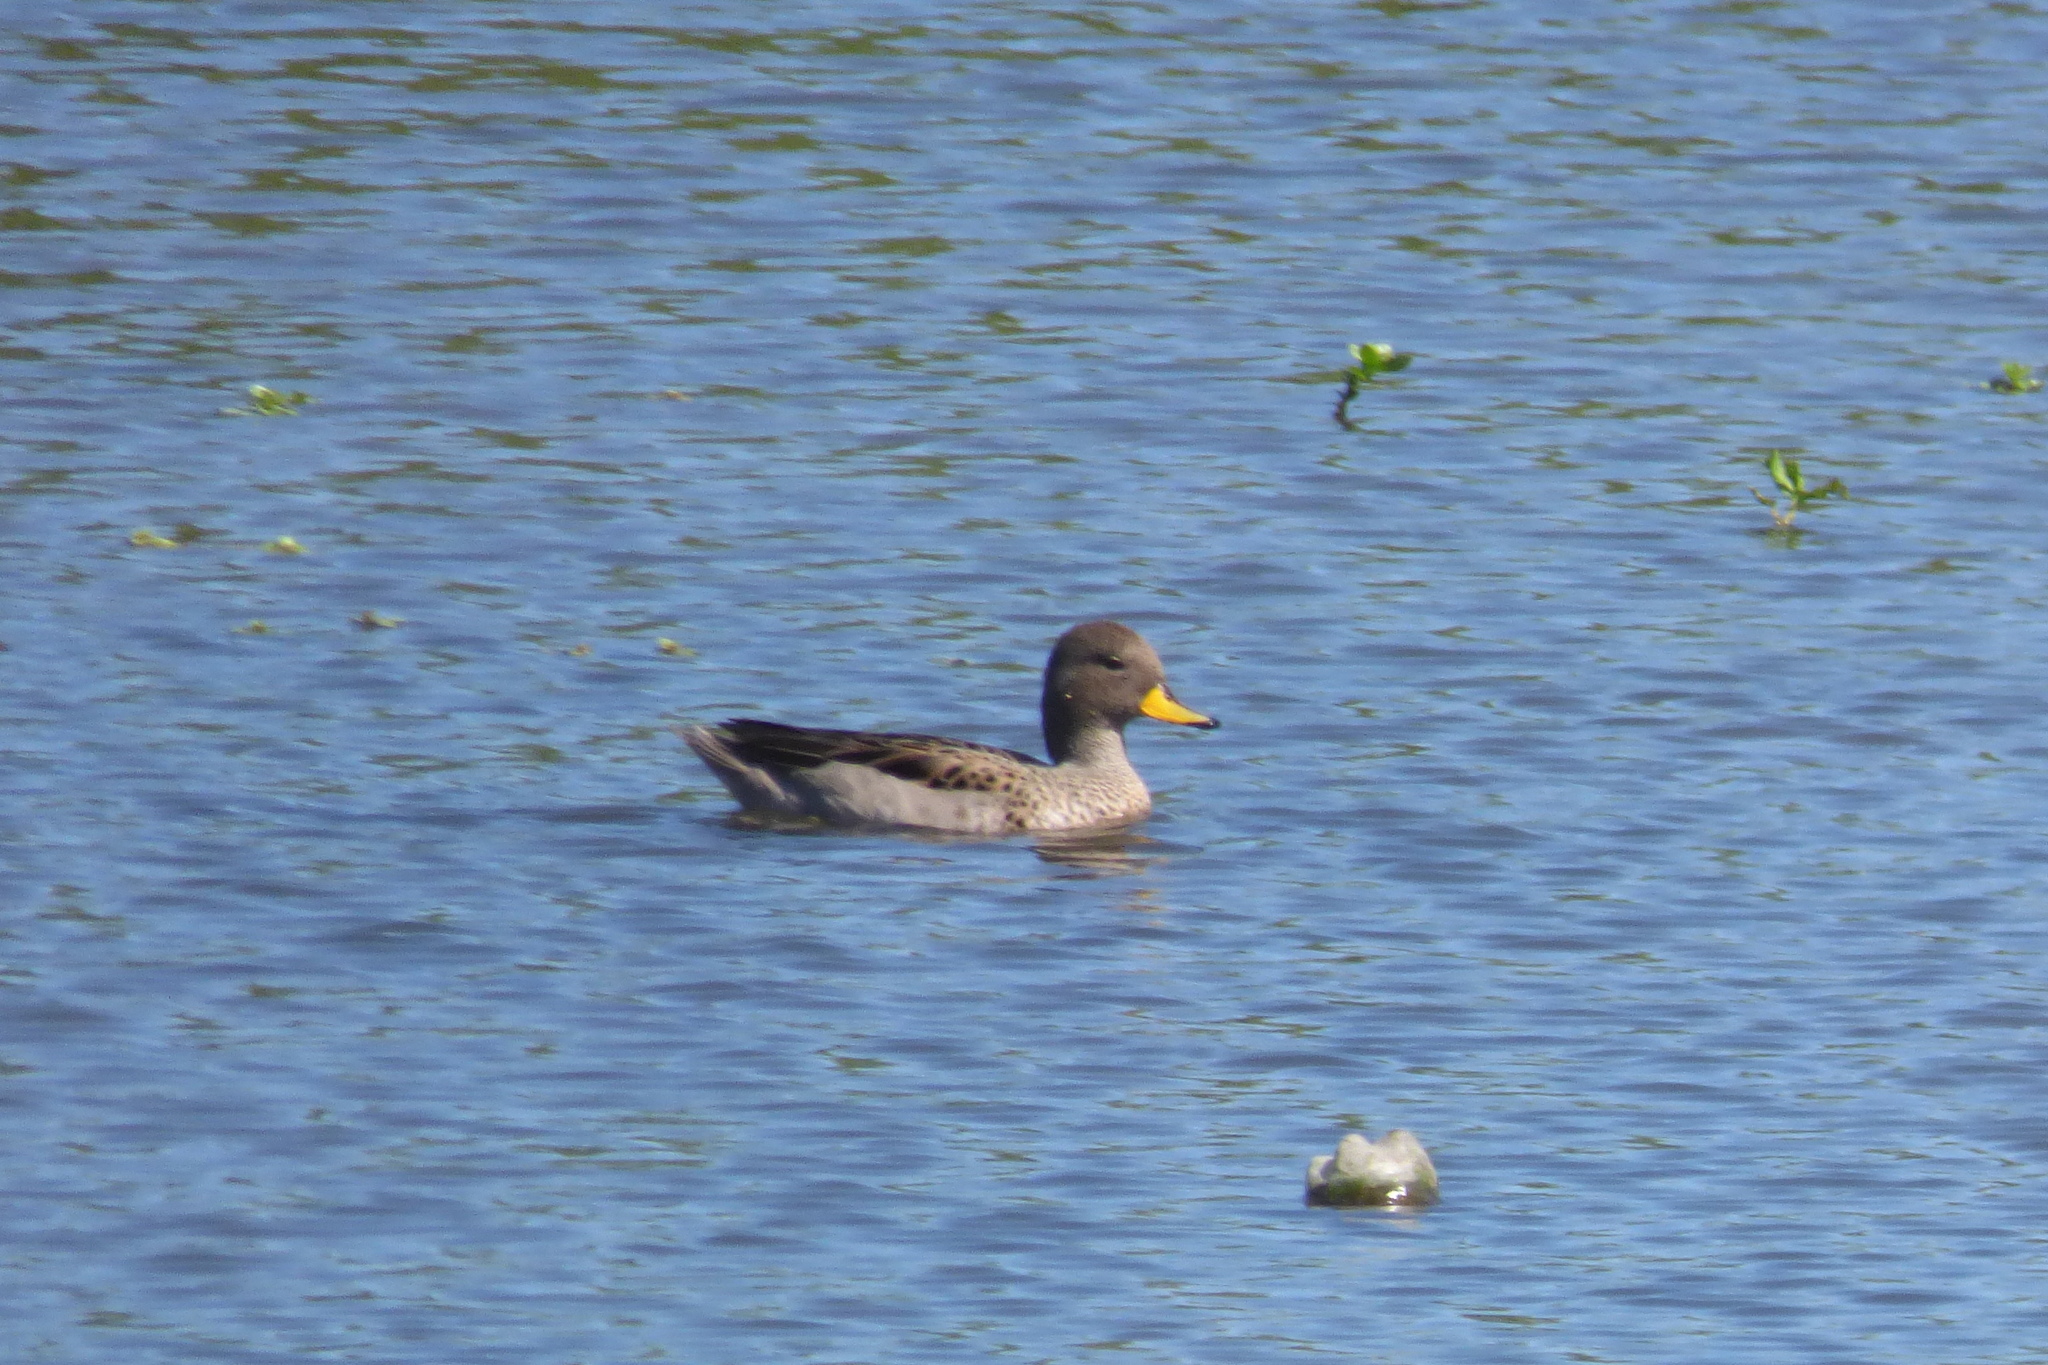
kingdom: Animalia
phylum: Chordata
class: Aves
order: Anseriformes
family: Anatidae
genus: Anas
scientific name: Anas flavirostris
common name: Yellow-billed teal
